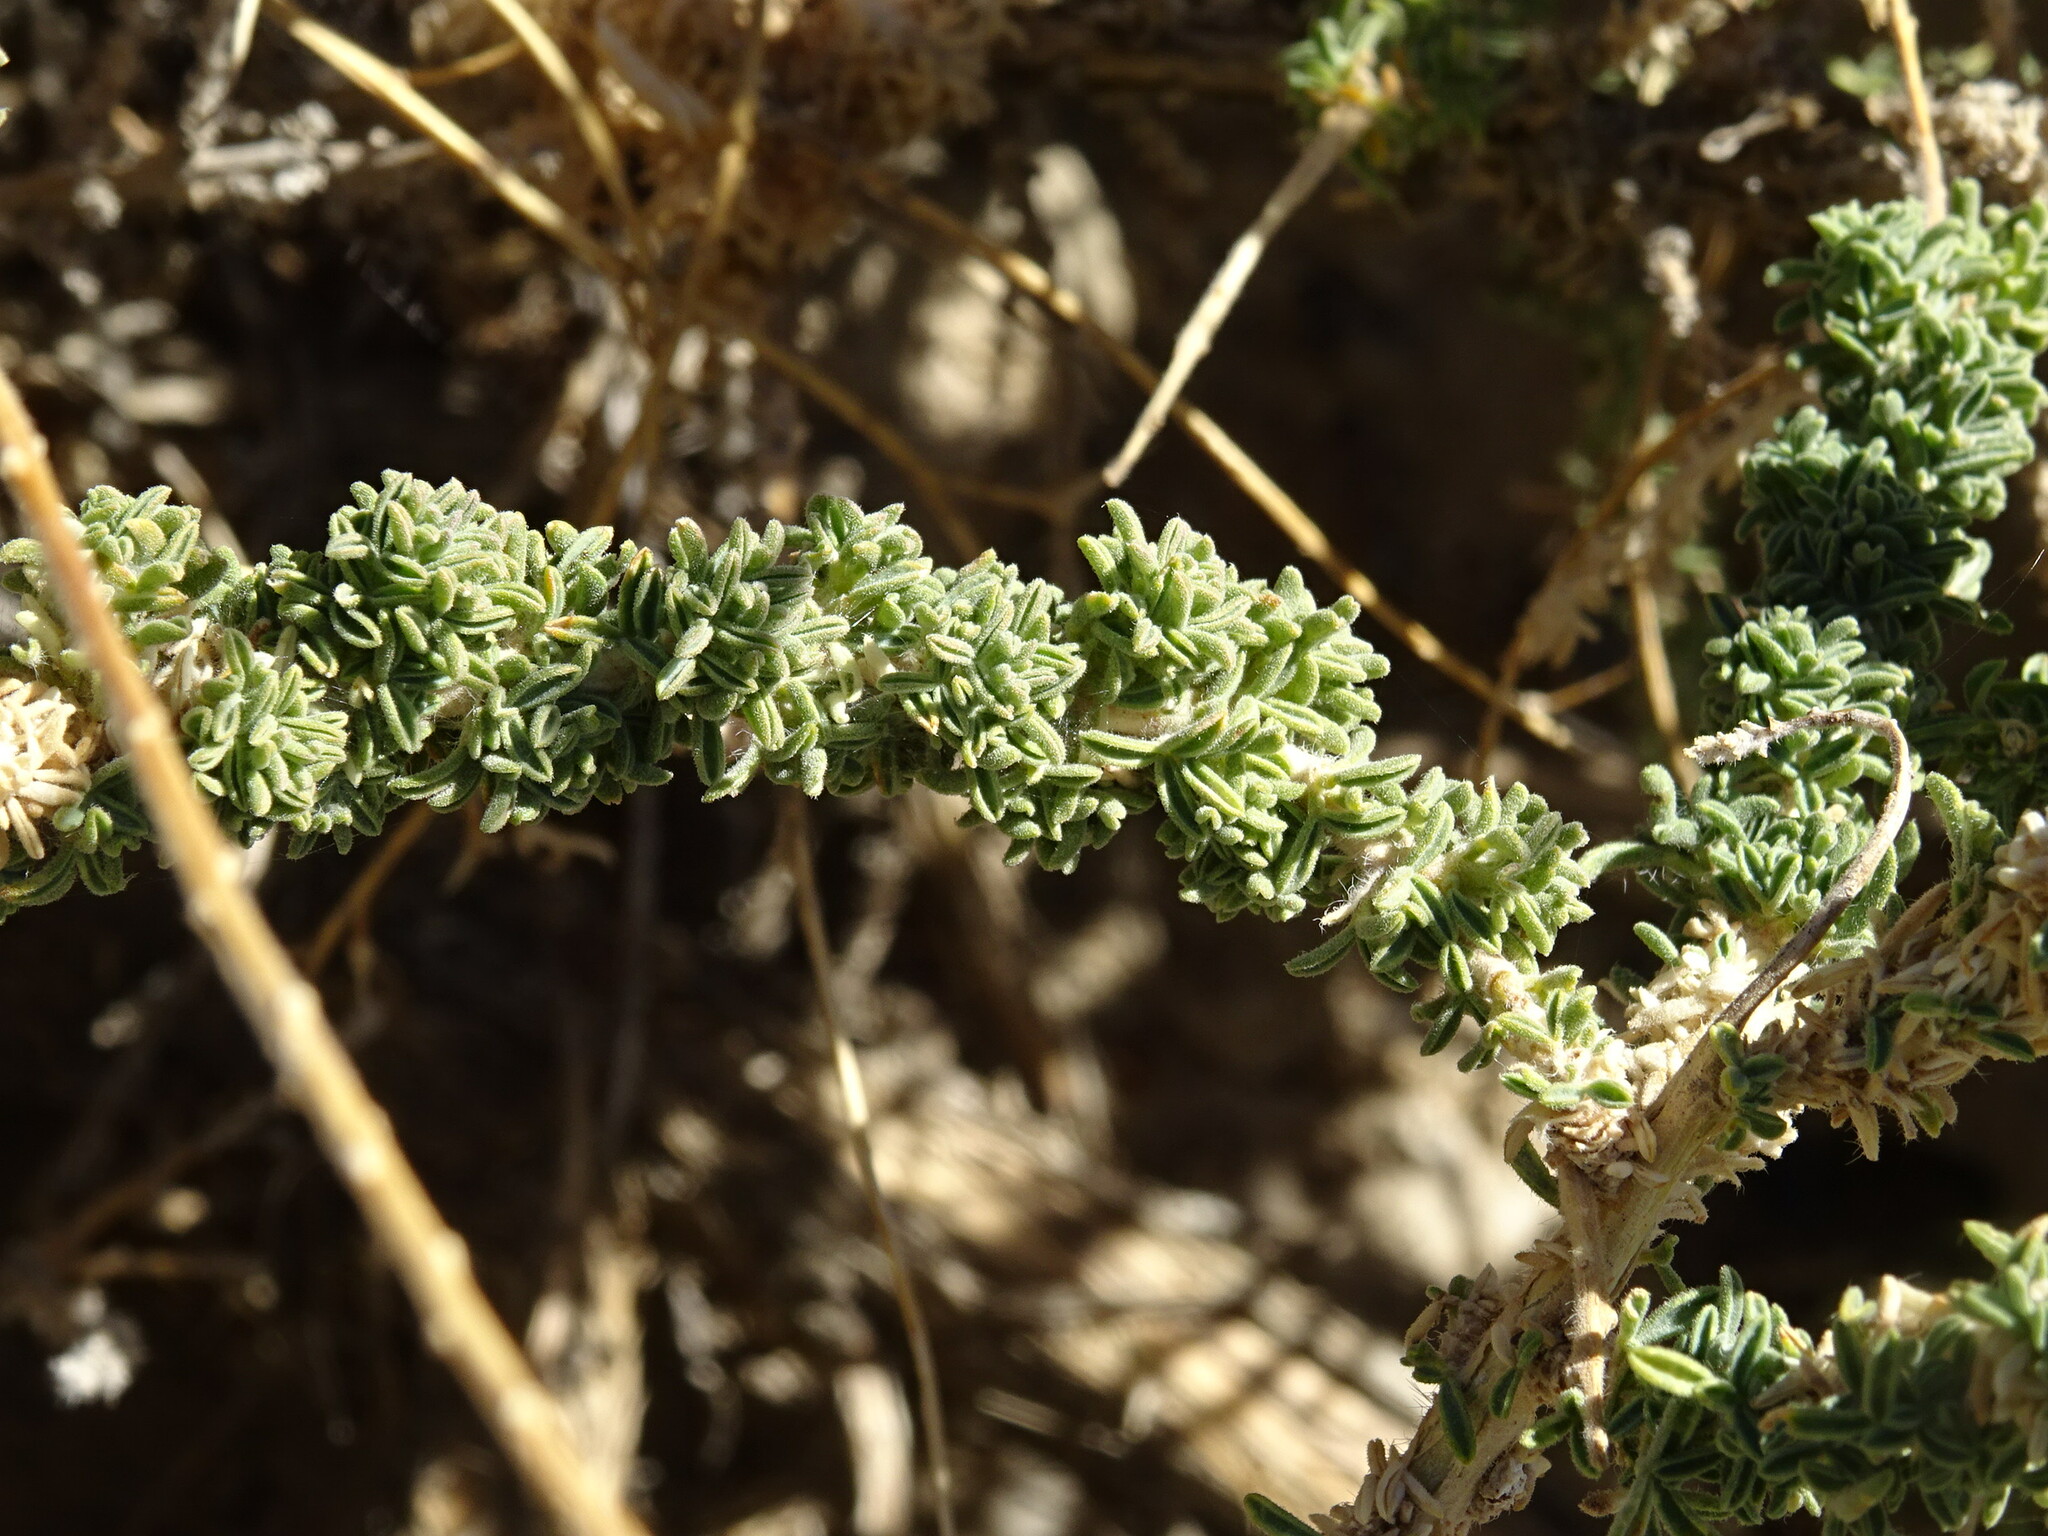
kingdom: Plantae
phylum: Tracheophyta
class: Magnoliopsida
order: Fabales
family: Fabaceae
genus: Adenocarpus
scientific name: Adenocarpus viscosus
